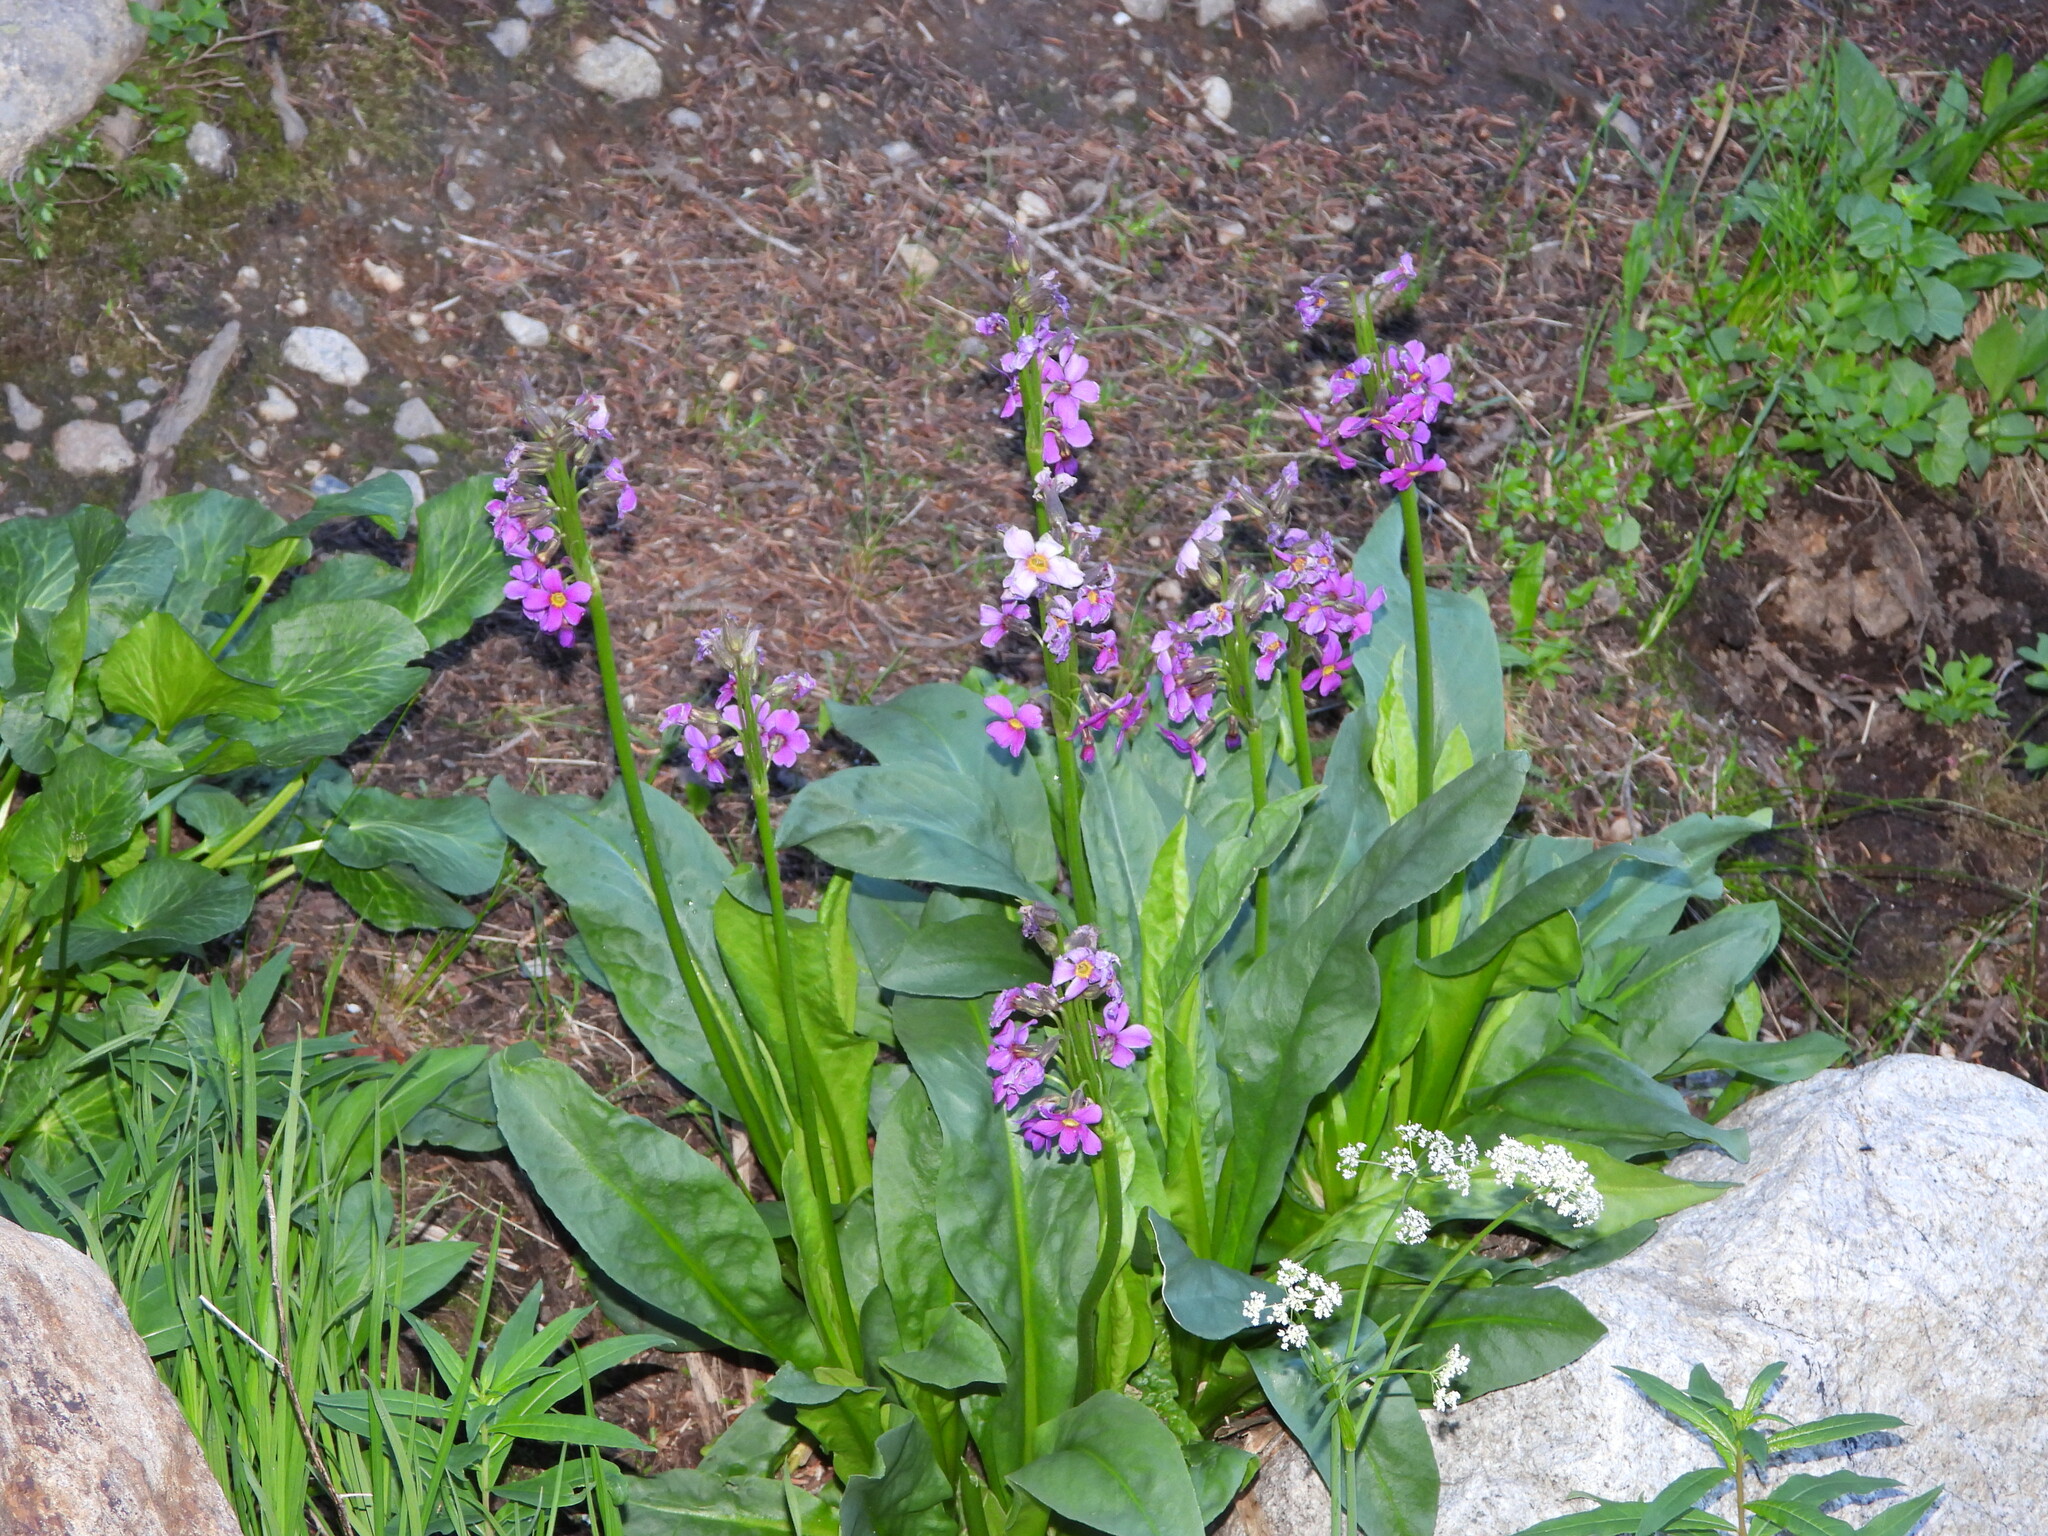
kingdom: Plantae
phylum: Tracheophyta
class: Magnoliopsida
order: Ericales
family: Primulaceae
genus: Primula
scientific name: Primula parryi
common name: Parry's primrose
